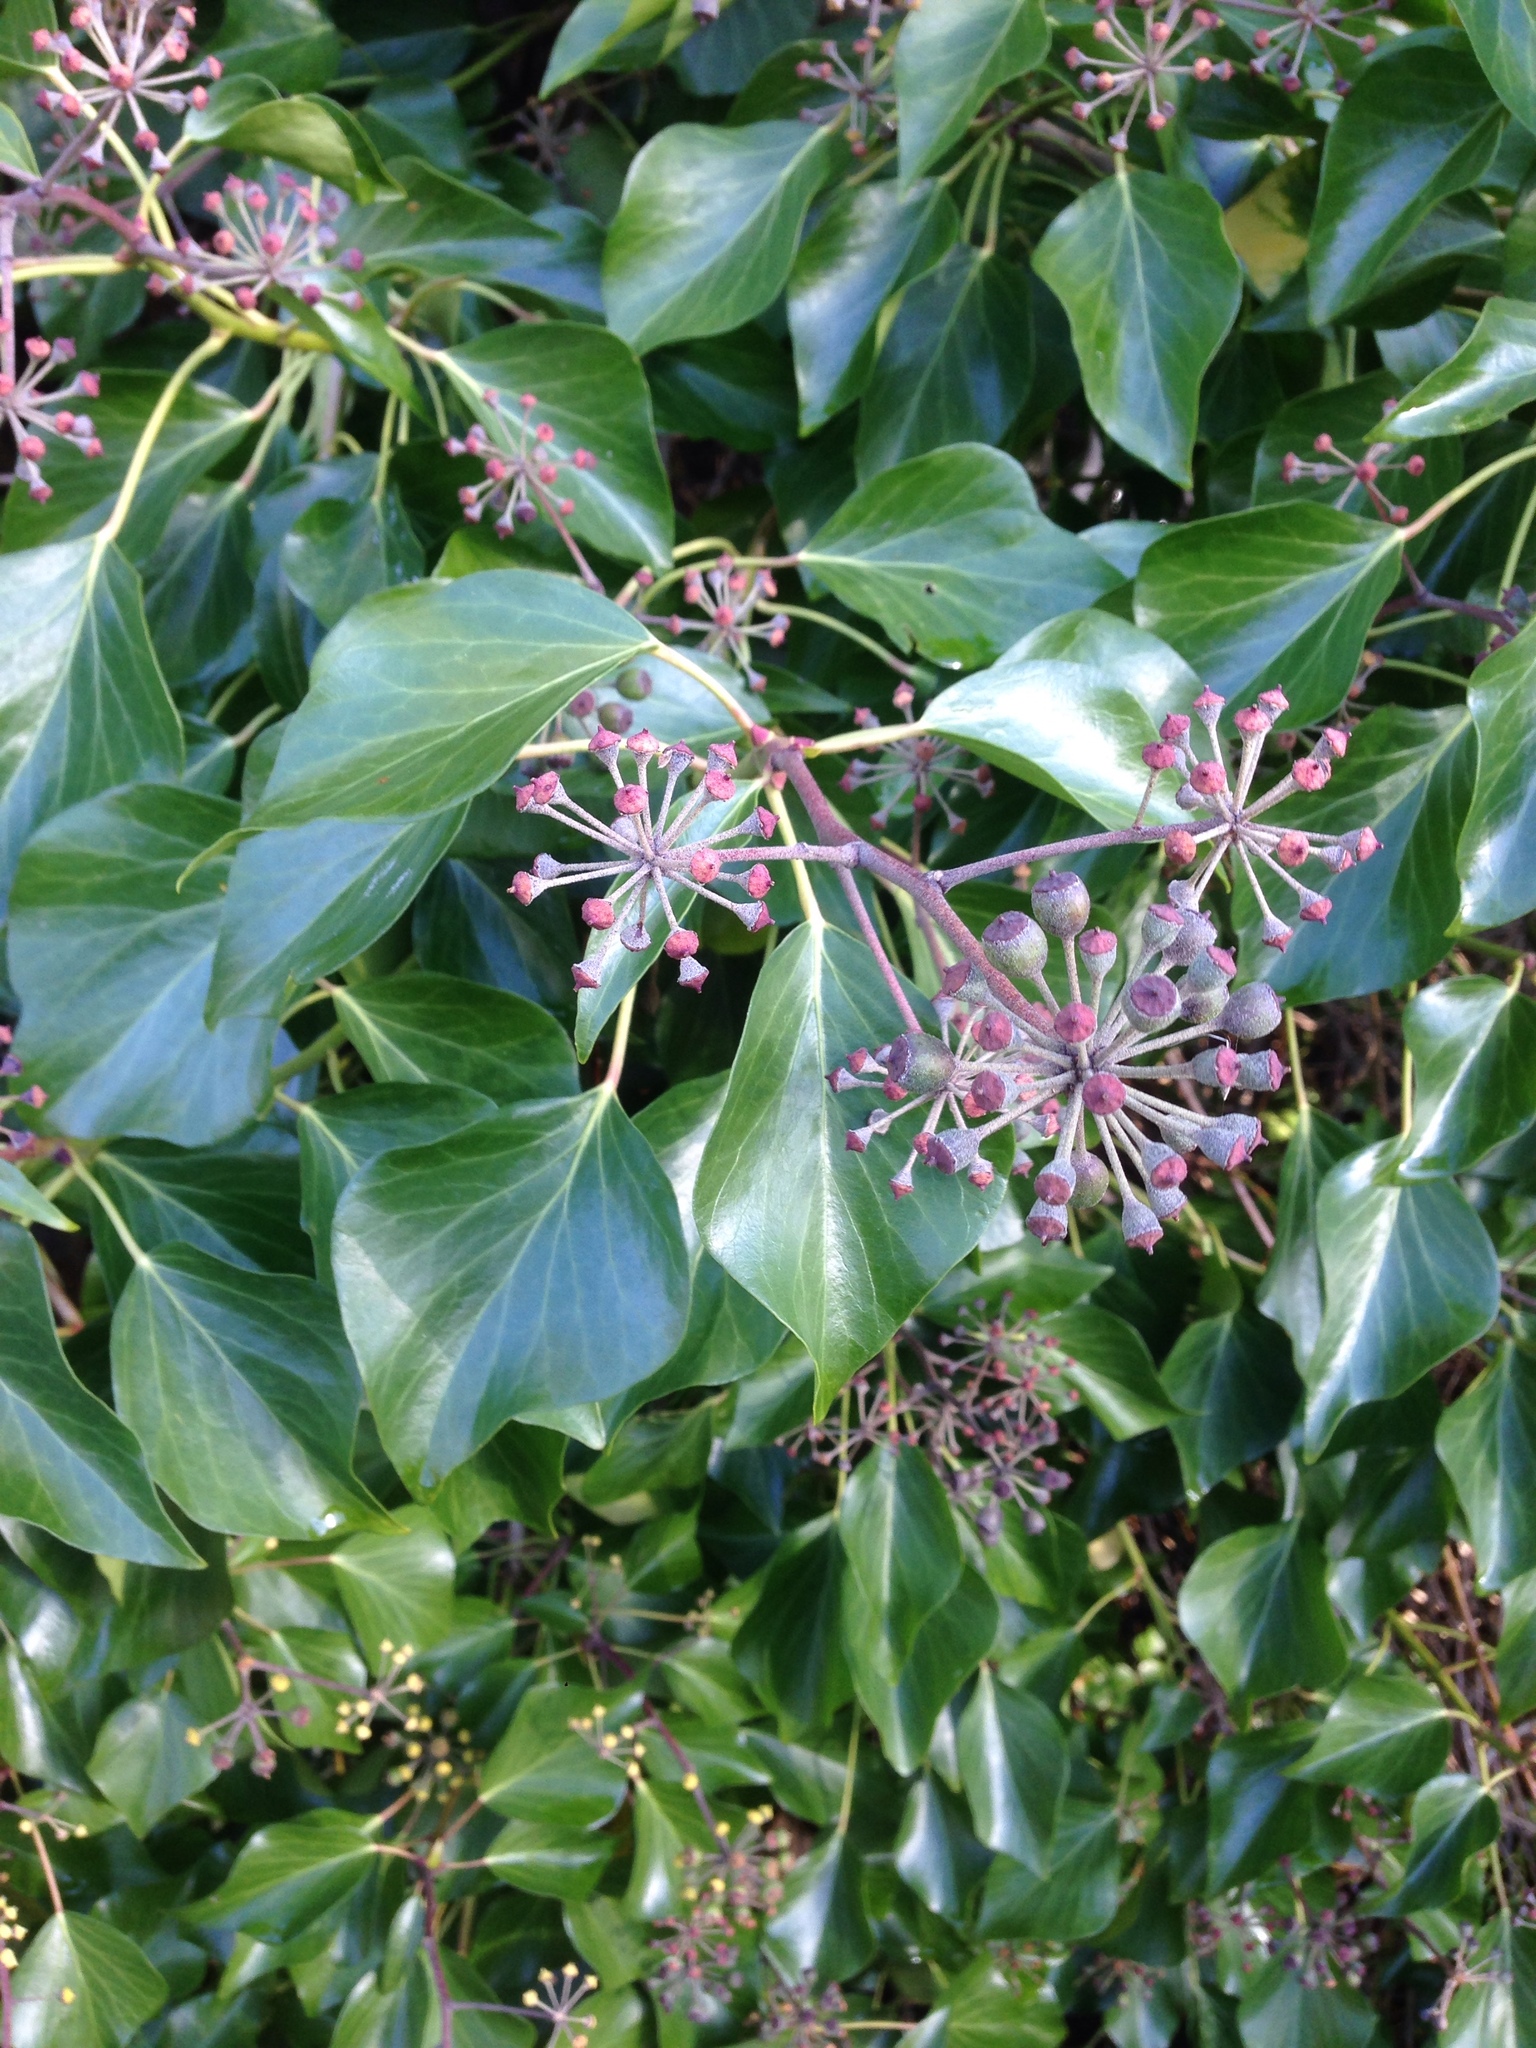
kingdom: Plantae
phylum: Tracheophyta
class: Magnoliopsida
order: Apiales
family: Araliaceae
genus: Hedera
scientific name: Hedera helix
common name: Ivy
